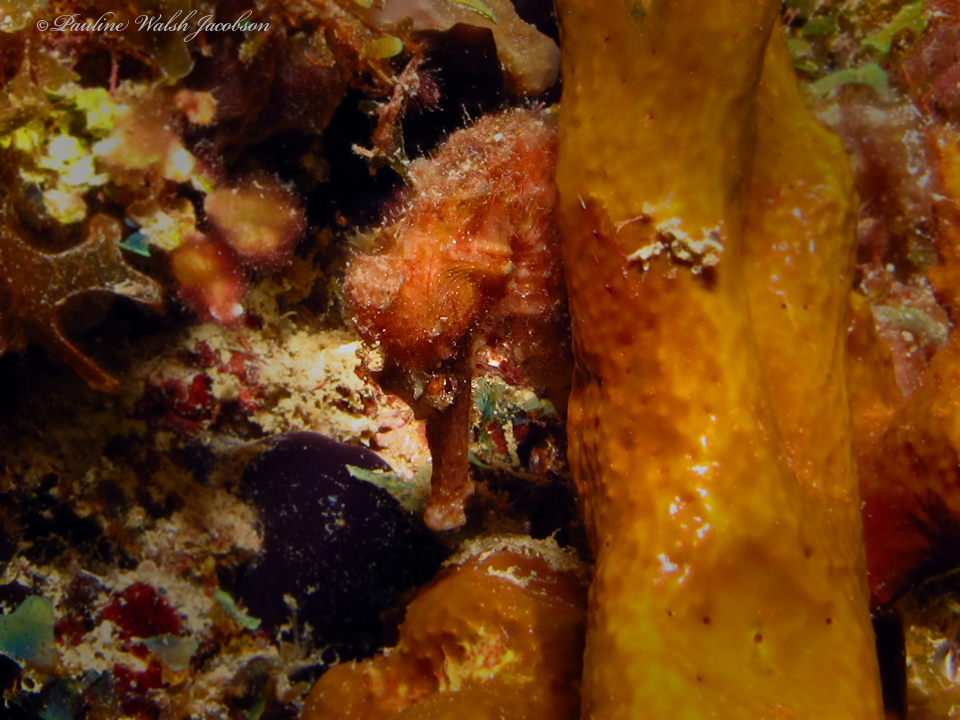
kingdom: Animalia
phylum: Chordata
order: Syngnathiformes
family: Syngnathidae
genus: Hippocampus
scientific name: Hippocampus reidi
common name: Slender seahorse
